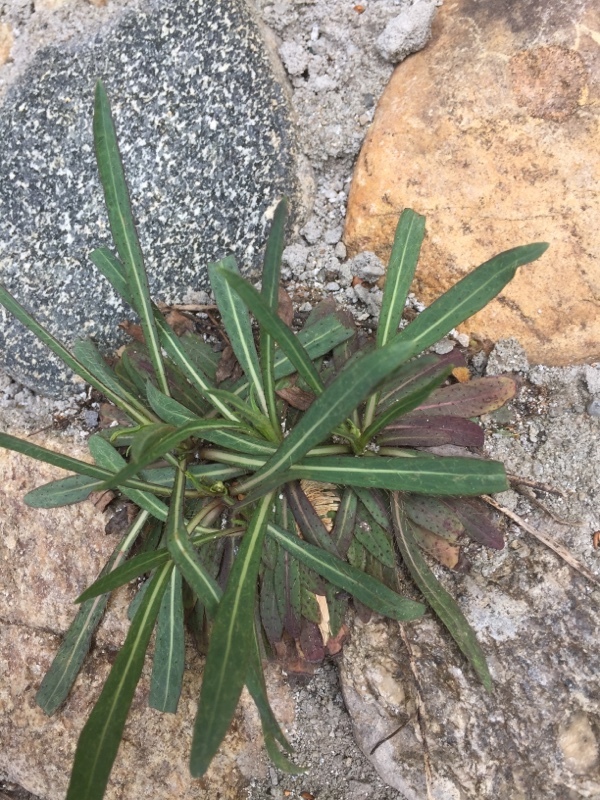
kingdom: Plantae
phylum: Tracheophyta
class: Magnoliopsida
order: Asterales
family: Asteraceae
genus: Chondrilla
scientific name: Chondrilla juncea
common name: Skeleton weed
